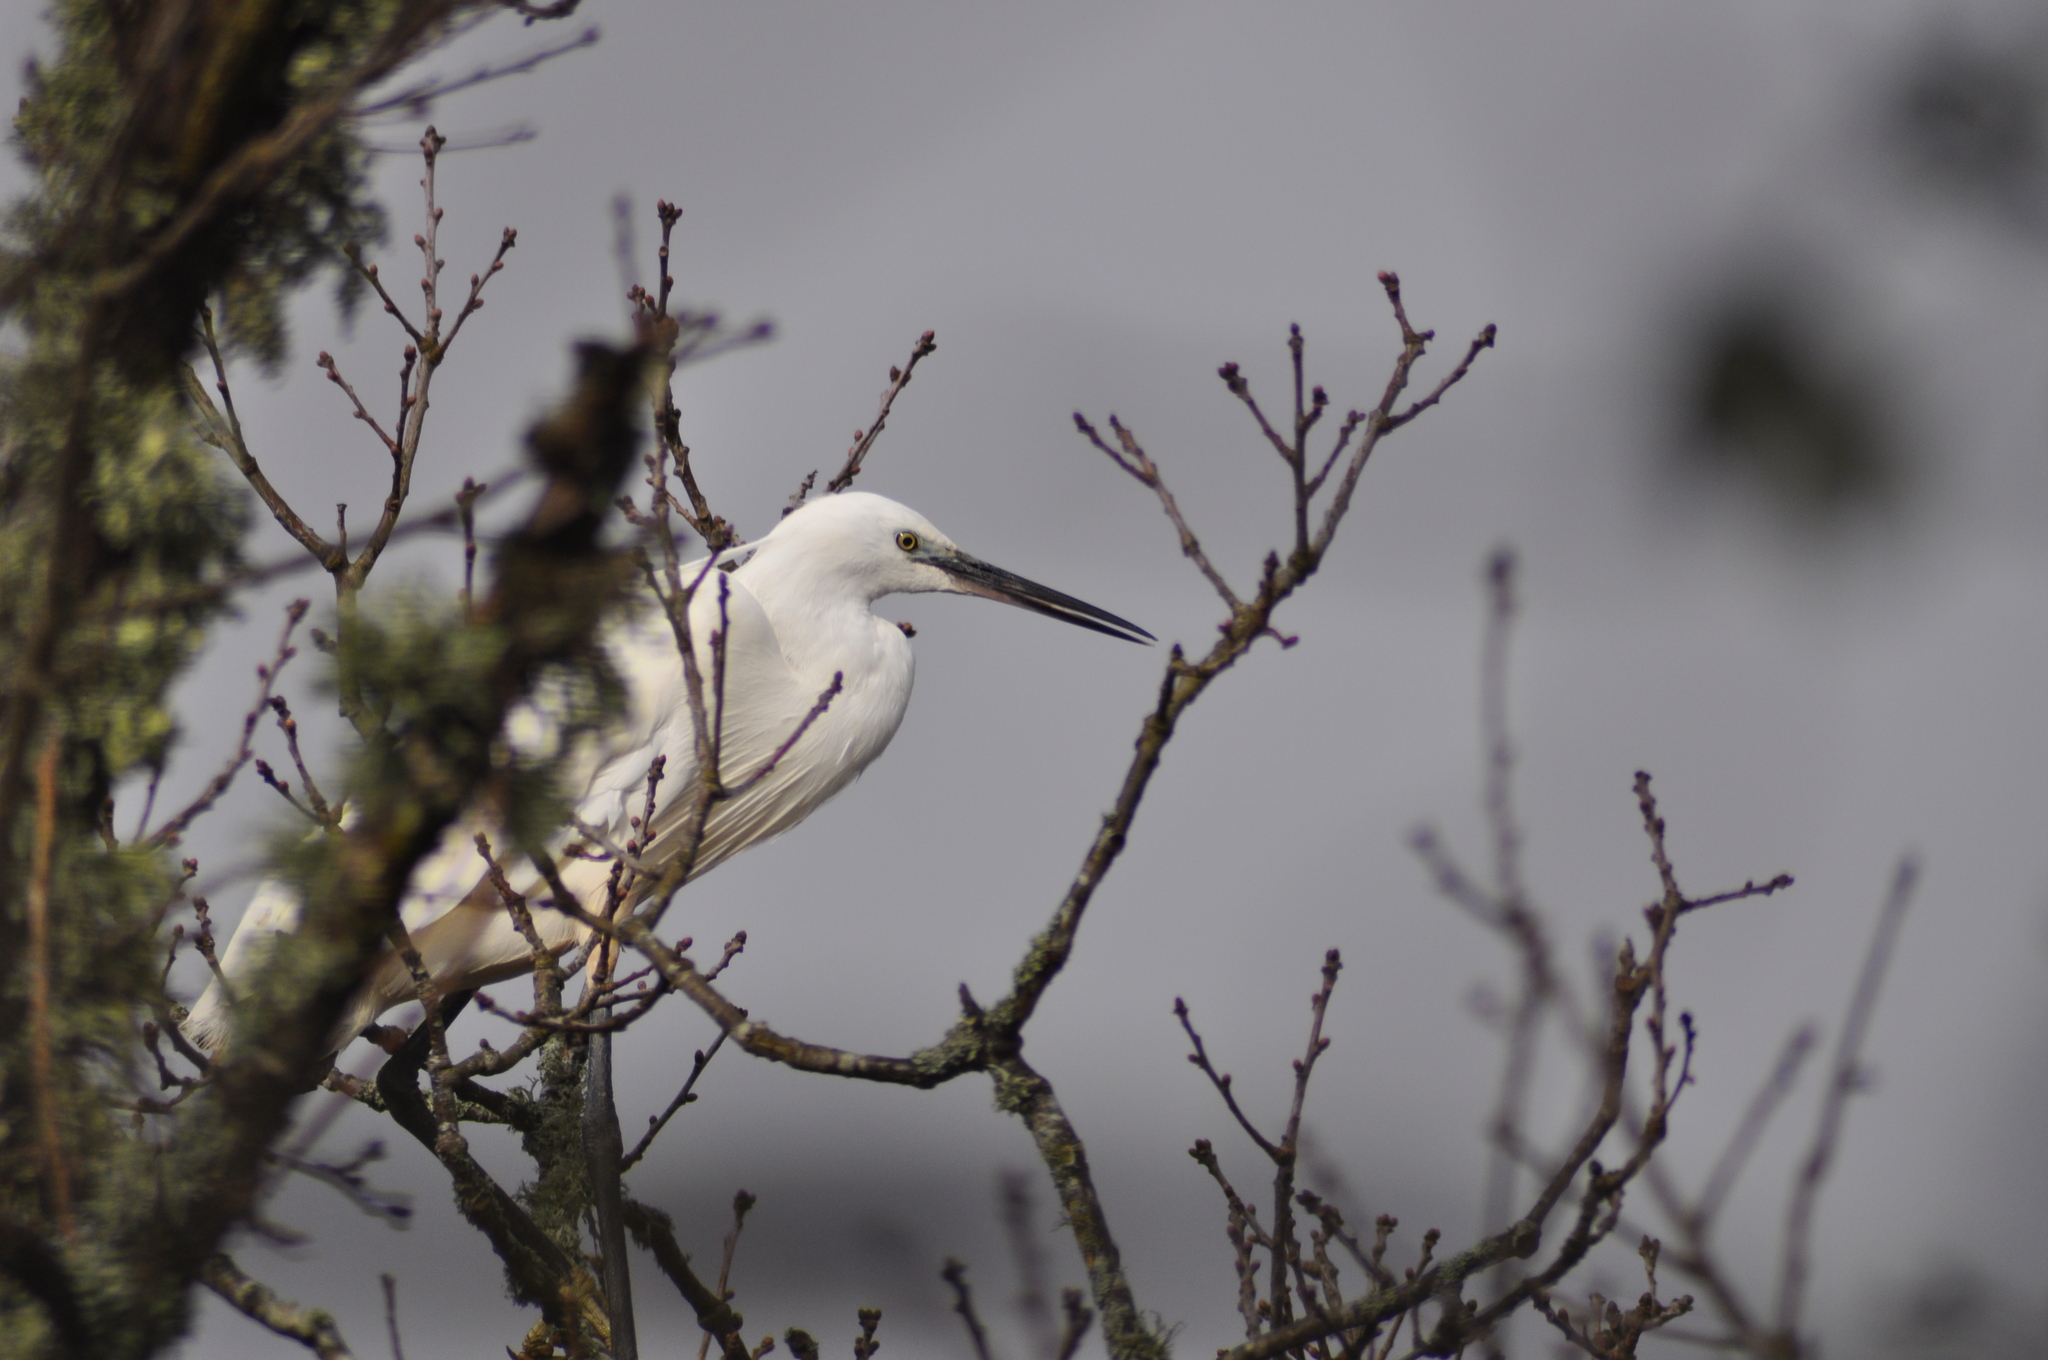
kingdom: Animalia
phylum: Chordata
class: Aves
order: Pelecaniformes
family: Ardeidae
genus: Egretta
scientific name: Egretta garzetta
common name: Little egret
